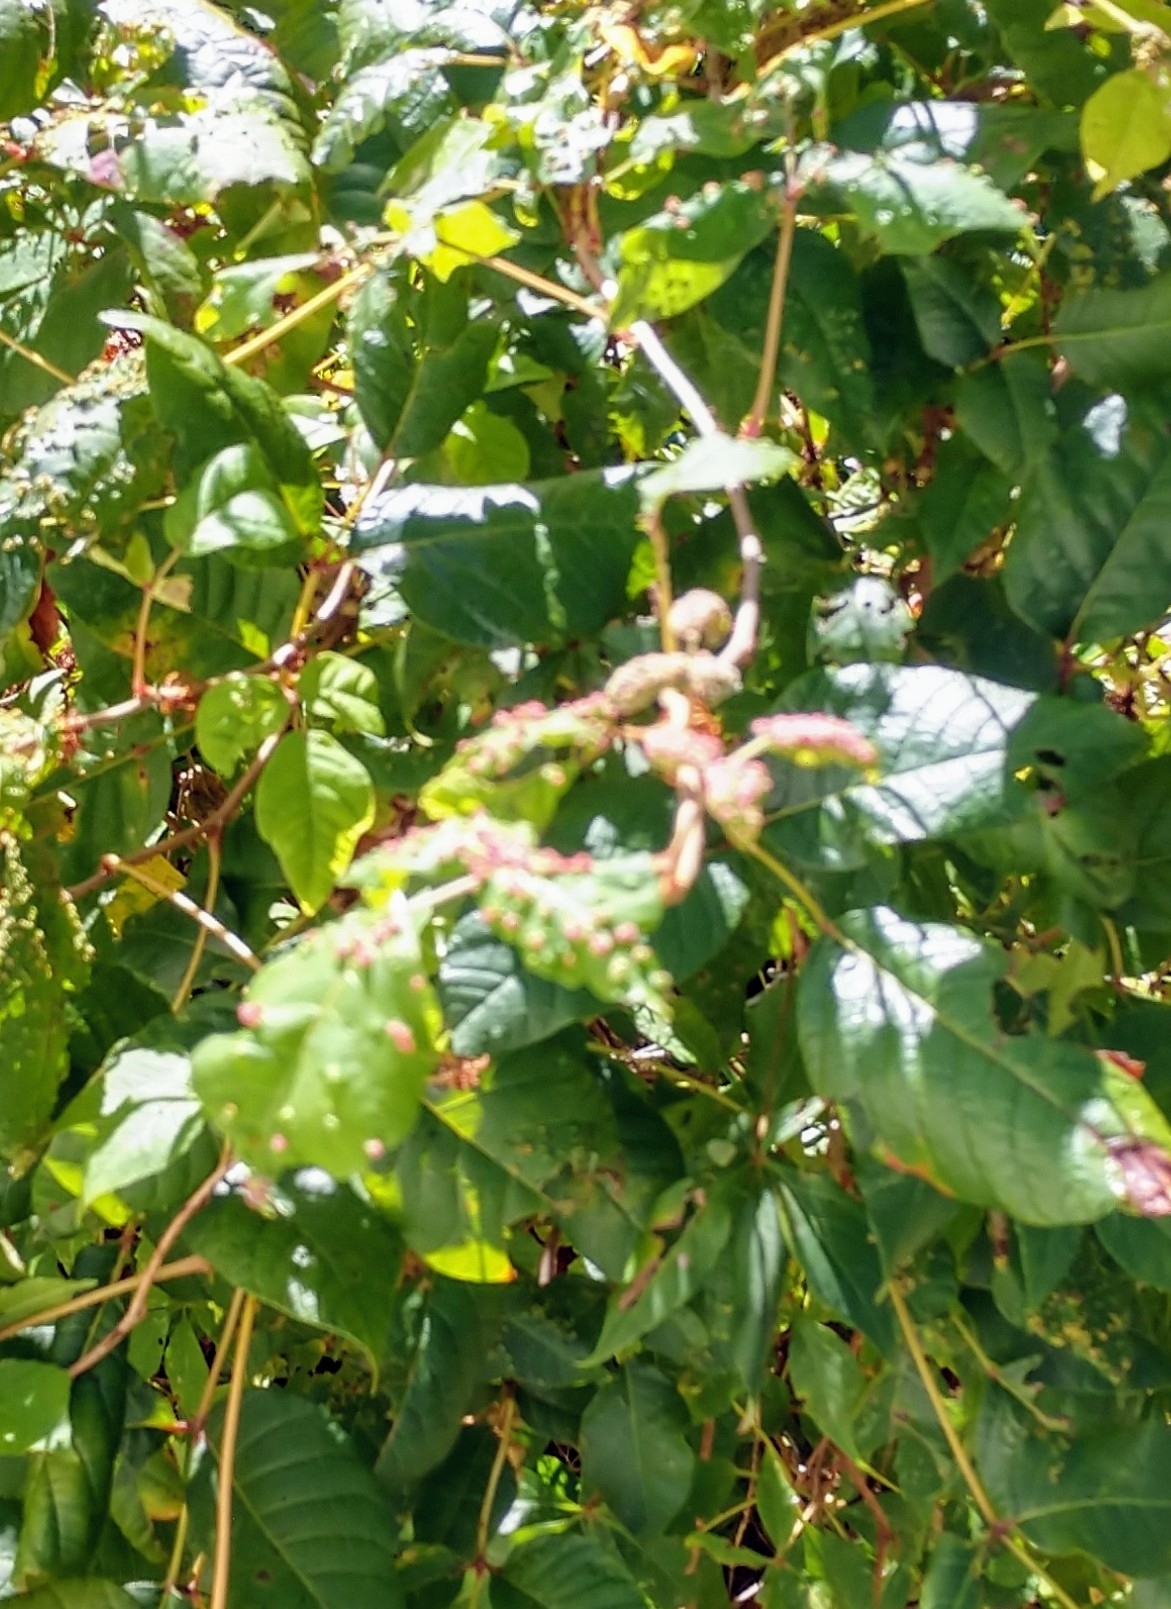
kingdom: Animalia
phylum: Arthropoda
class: Arachnida
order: Trombidiformes
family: Eriophyidae
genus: Aculops
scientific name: Aculops
